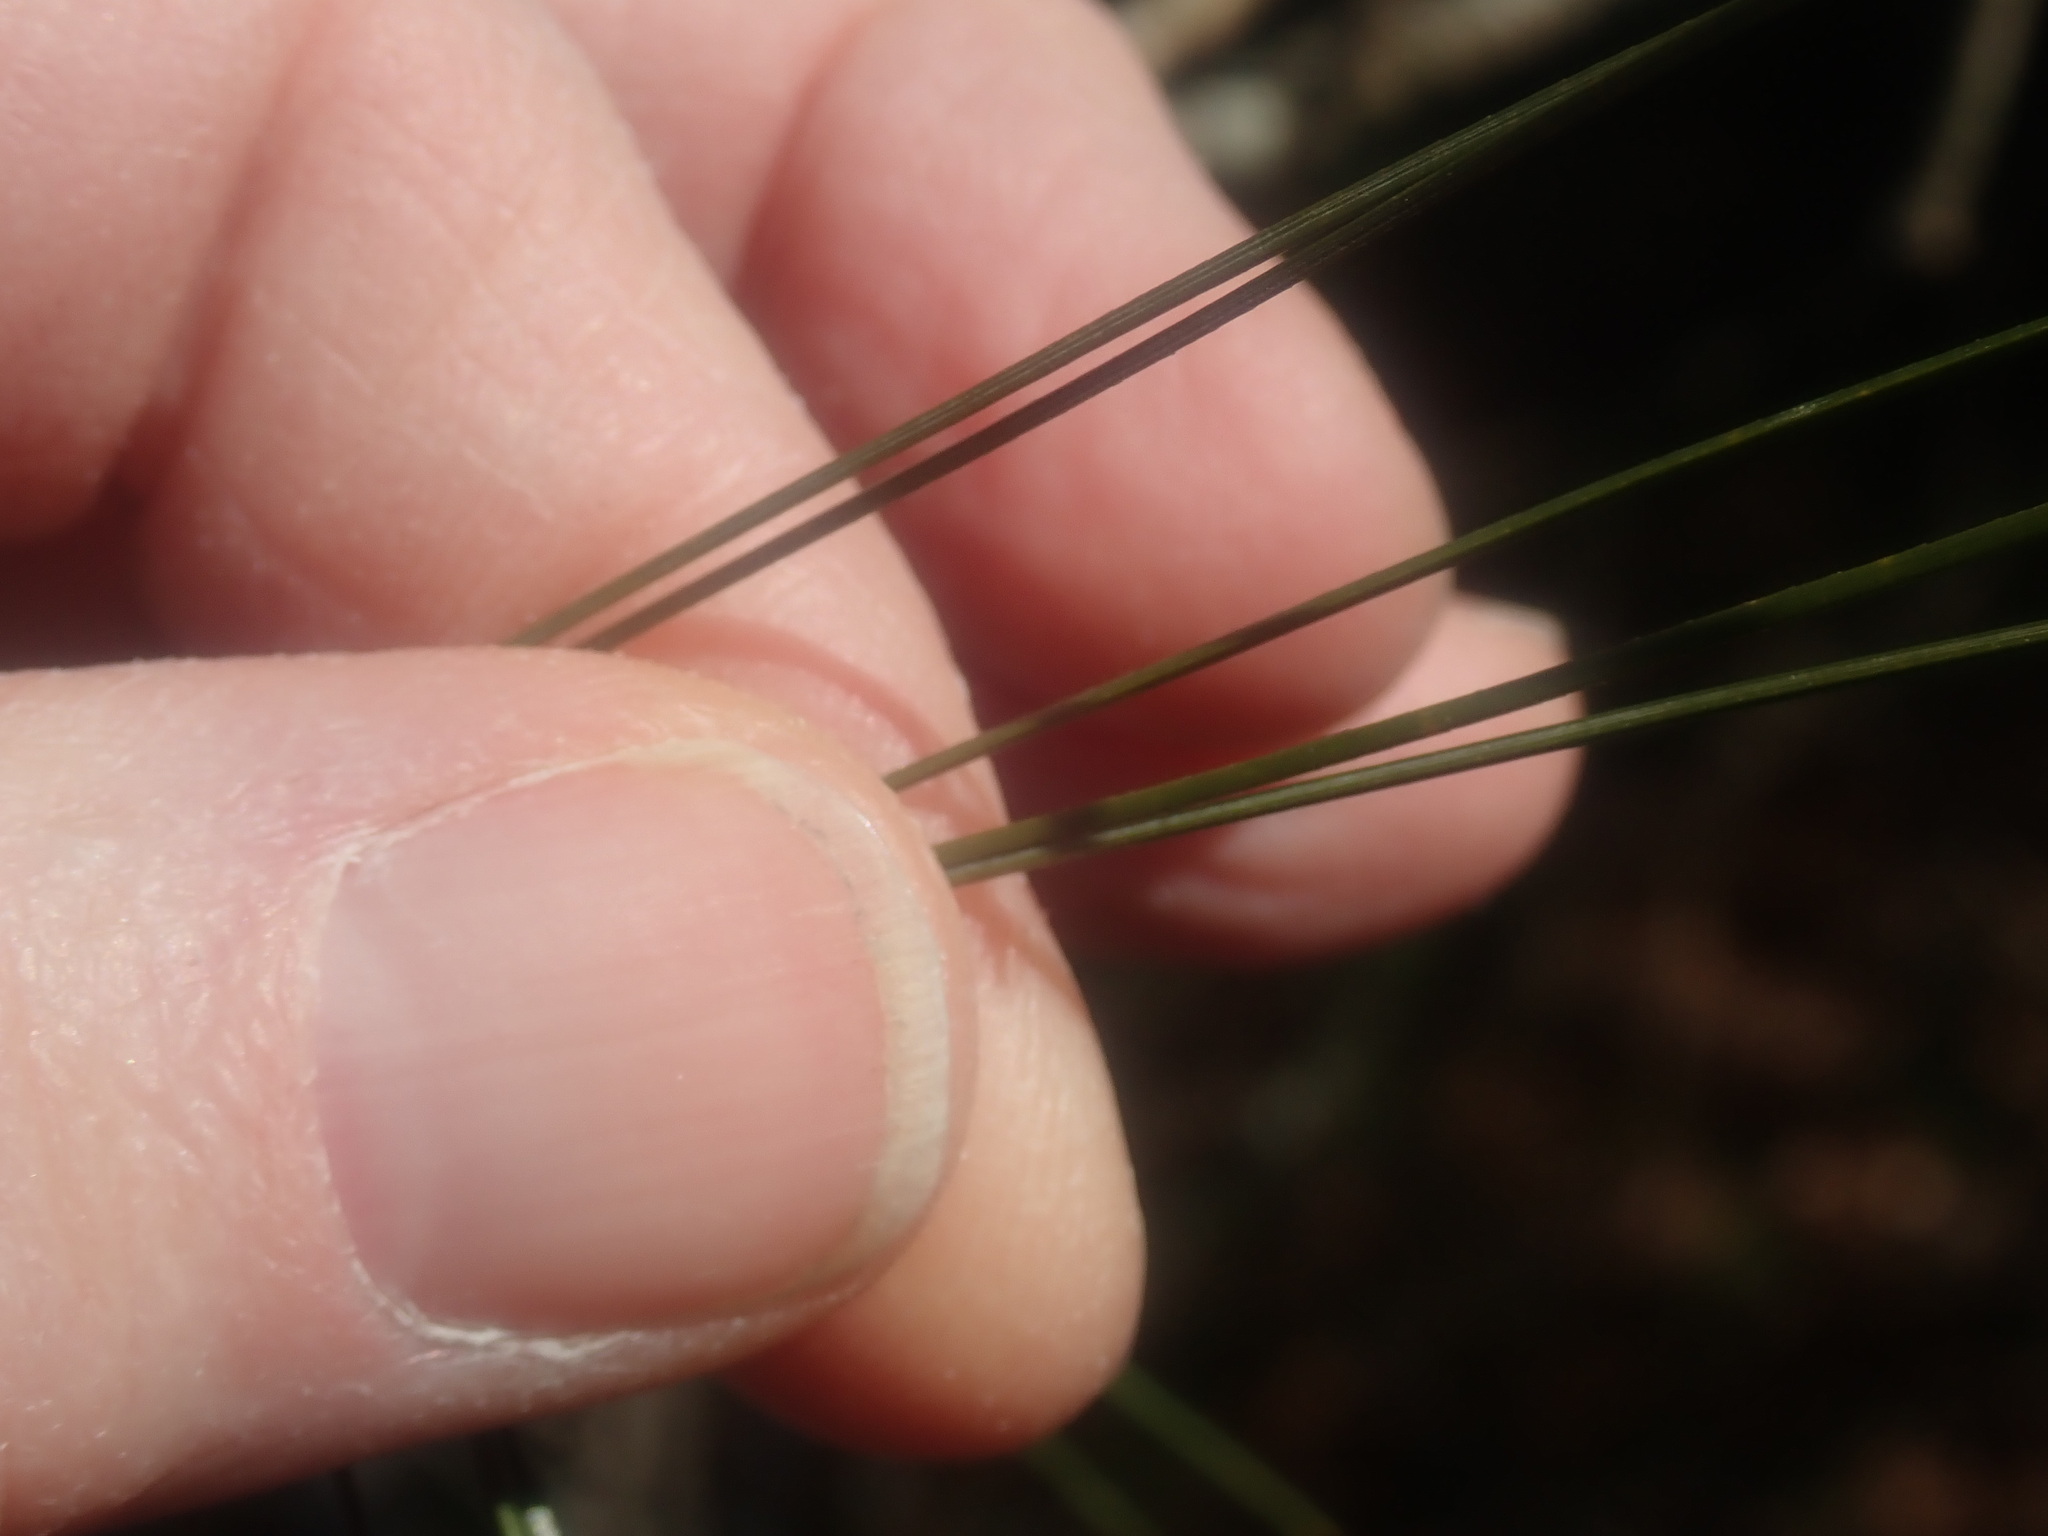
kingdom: Plantae
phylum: Tracheophyta
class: Pinopsida
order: Pinales
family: Pinaceae
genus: Pinus
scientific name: Pinus strobus
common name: Weymouth pine
